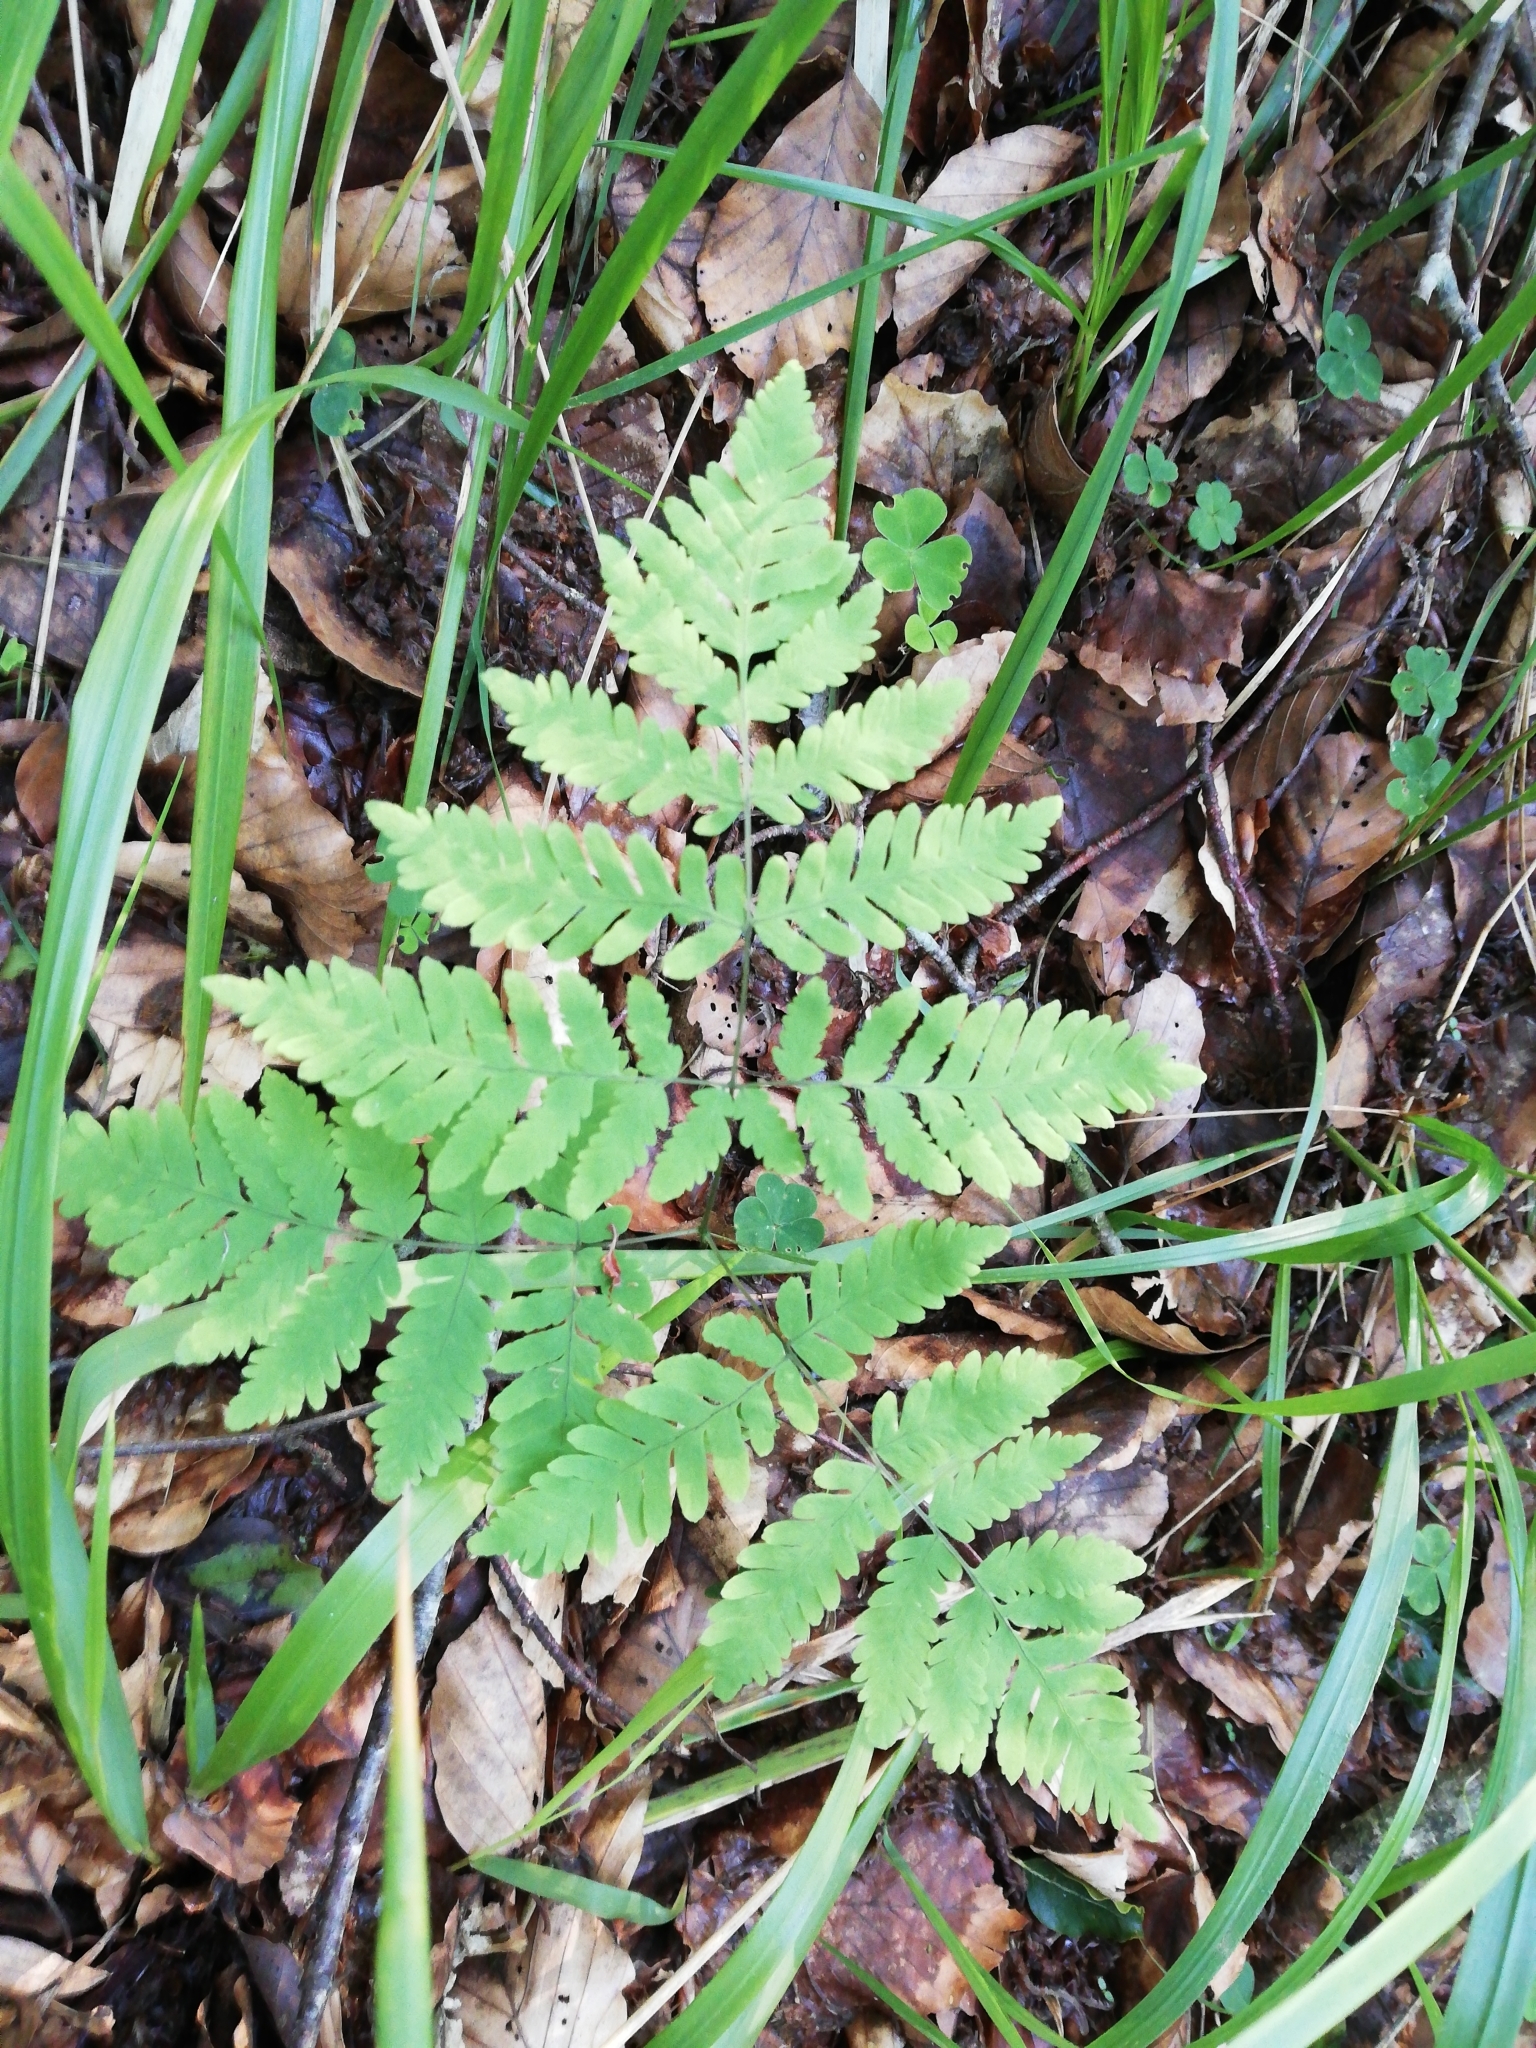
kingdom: Plantae
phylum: Tracheophyta
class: Polypodiopsida
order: Polypodiales
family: Cystopteridaceae
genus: Gymnocarpium
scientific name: Gymnocarpium dryopteris
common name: Oak fern
